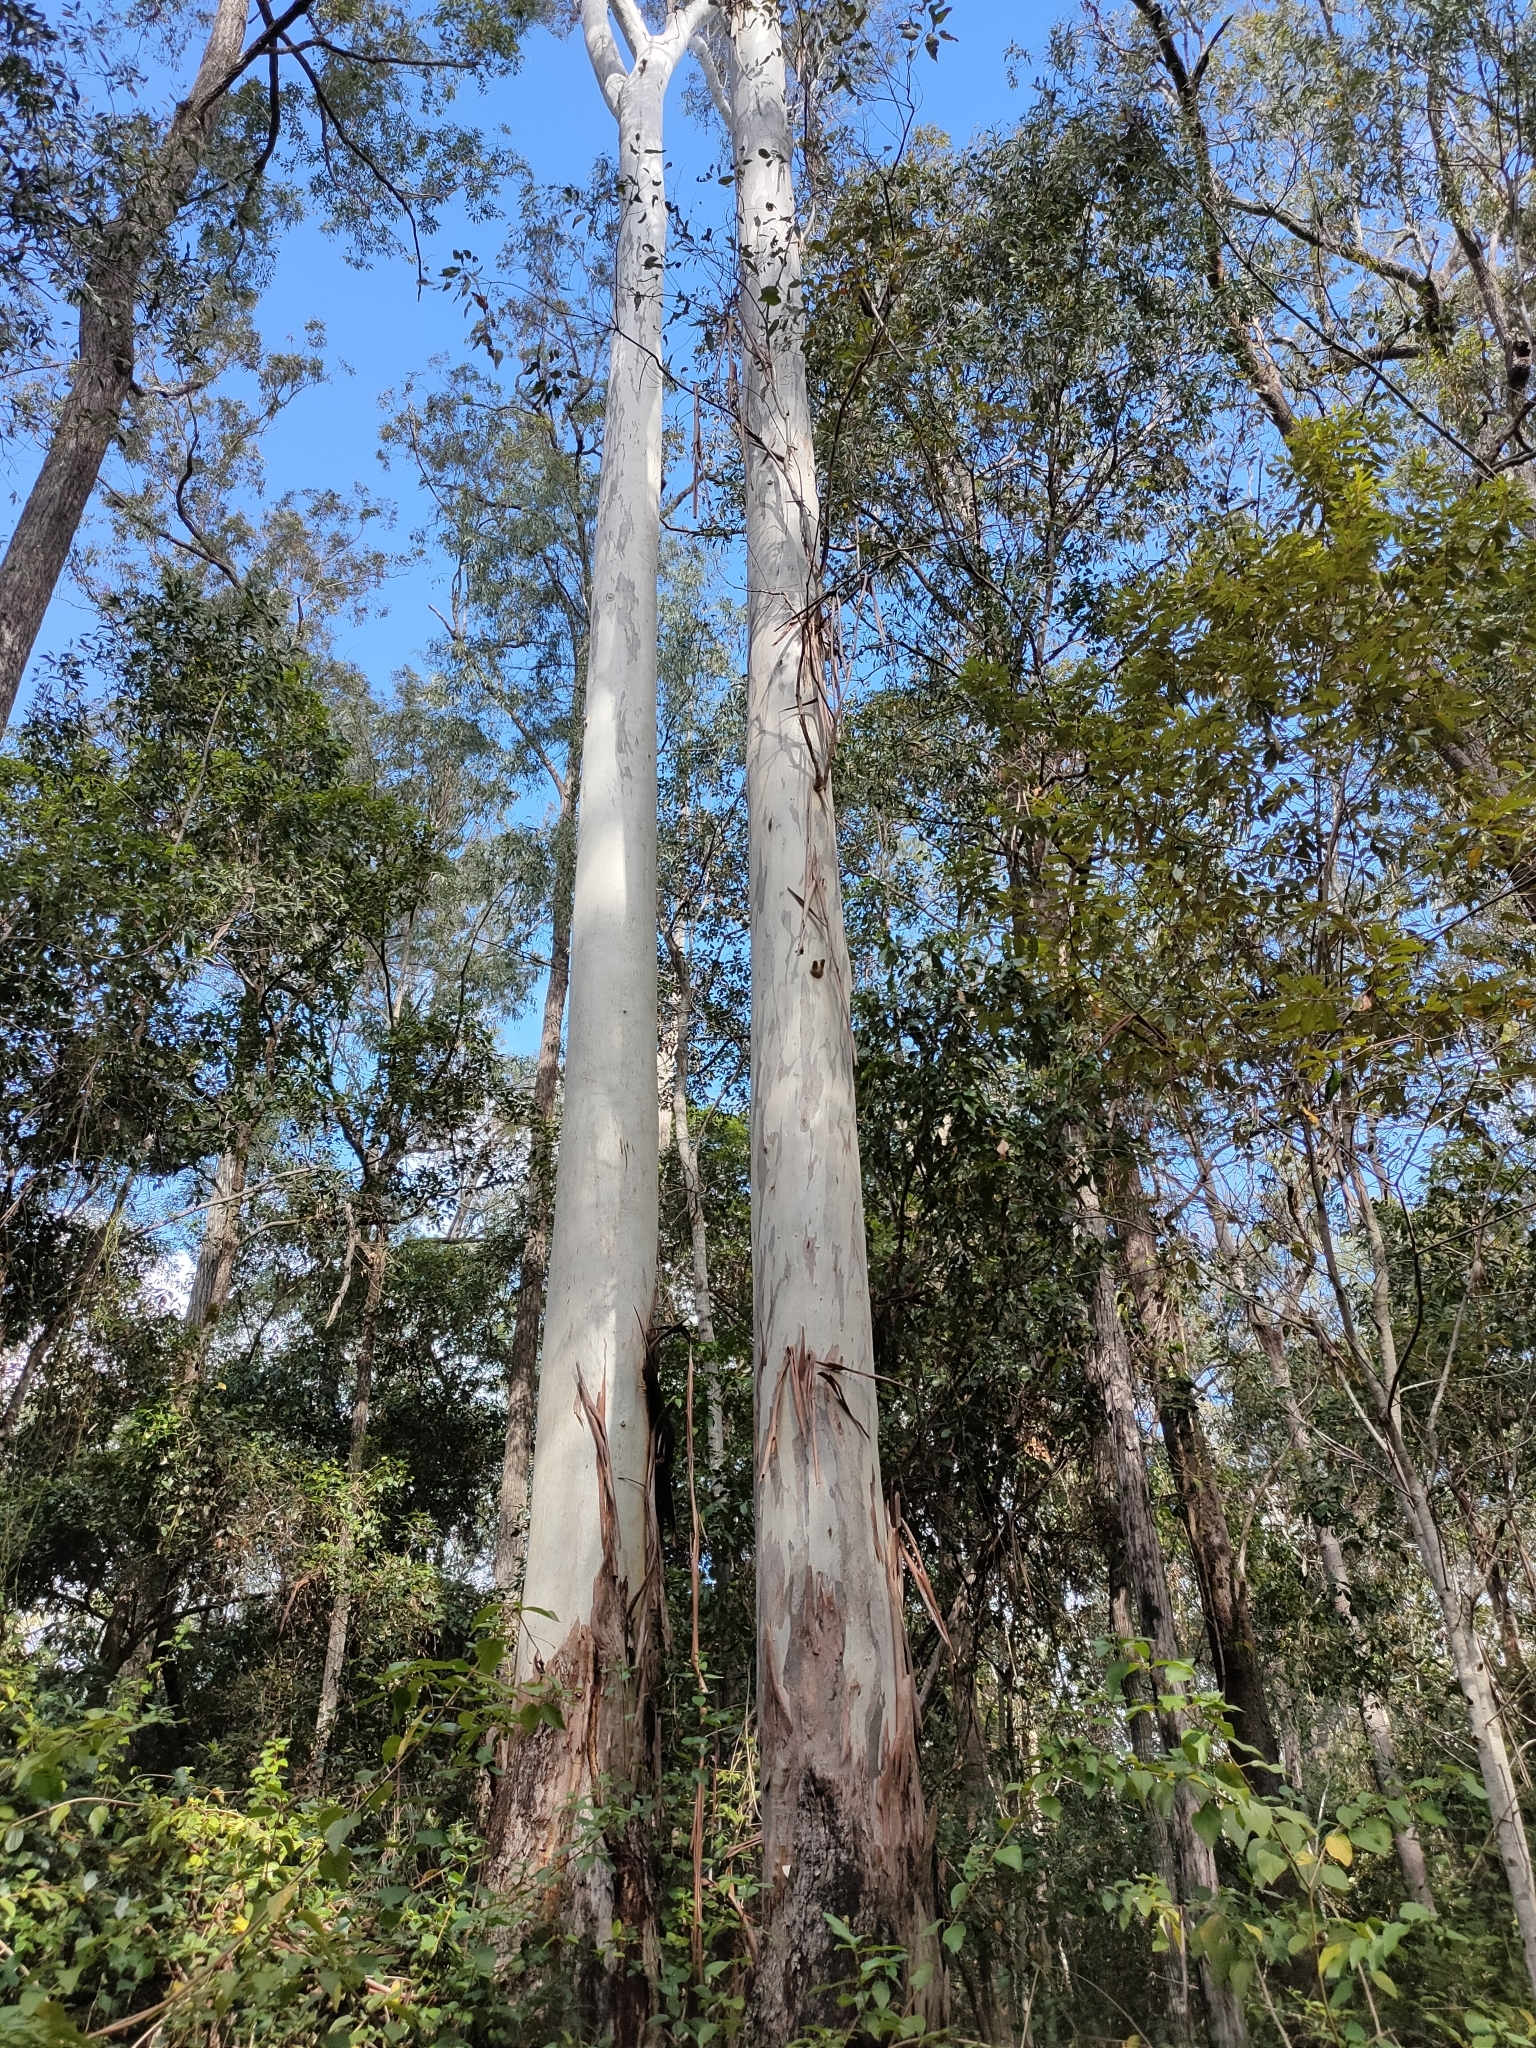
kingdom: Plantae
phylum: Tracheophyta
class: Magnoliopsida
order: Myrtales
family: Myrtaceae
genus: Eucalyptus
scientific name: Eucalyptus grandis
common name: Grand eucalyptus
